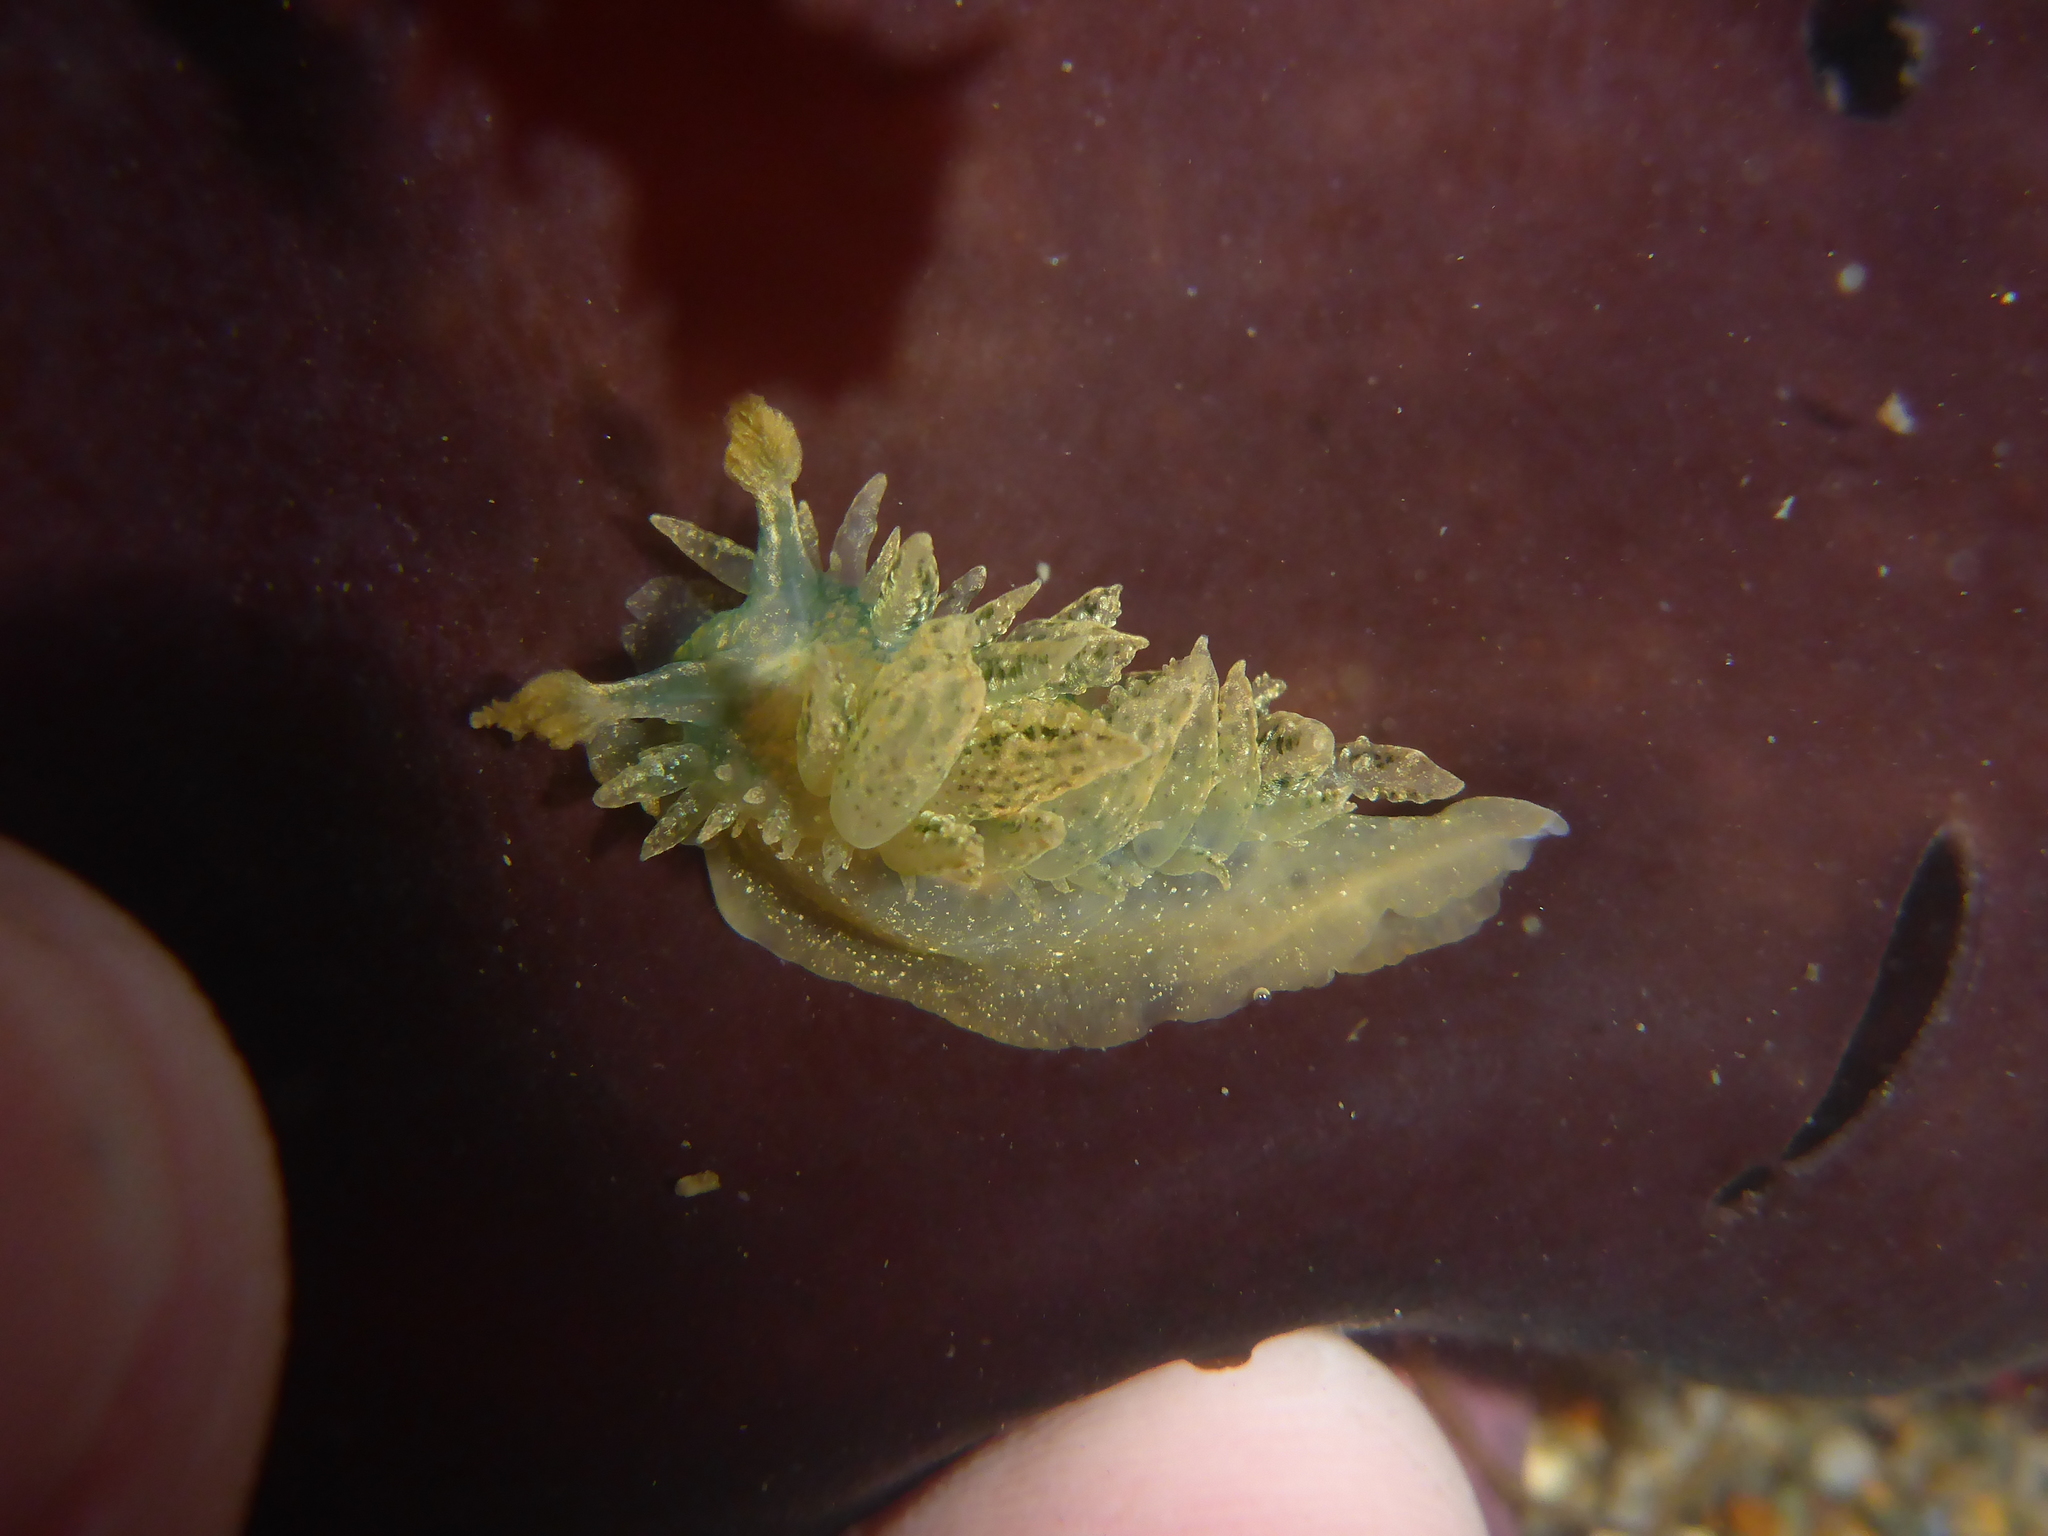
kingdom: Animalia
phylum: Mollusca
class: Gastropoda
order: Nudibranchia
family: Dironidae
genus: Dirona
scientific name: Dirona picta
